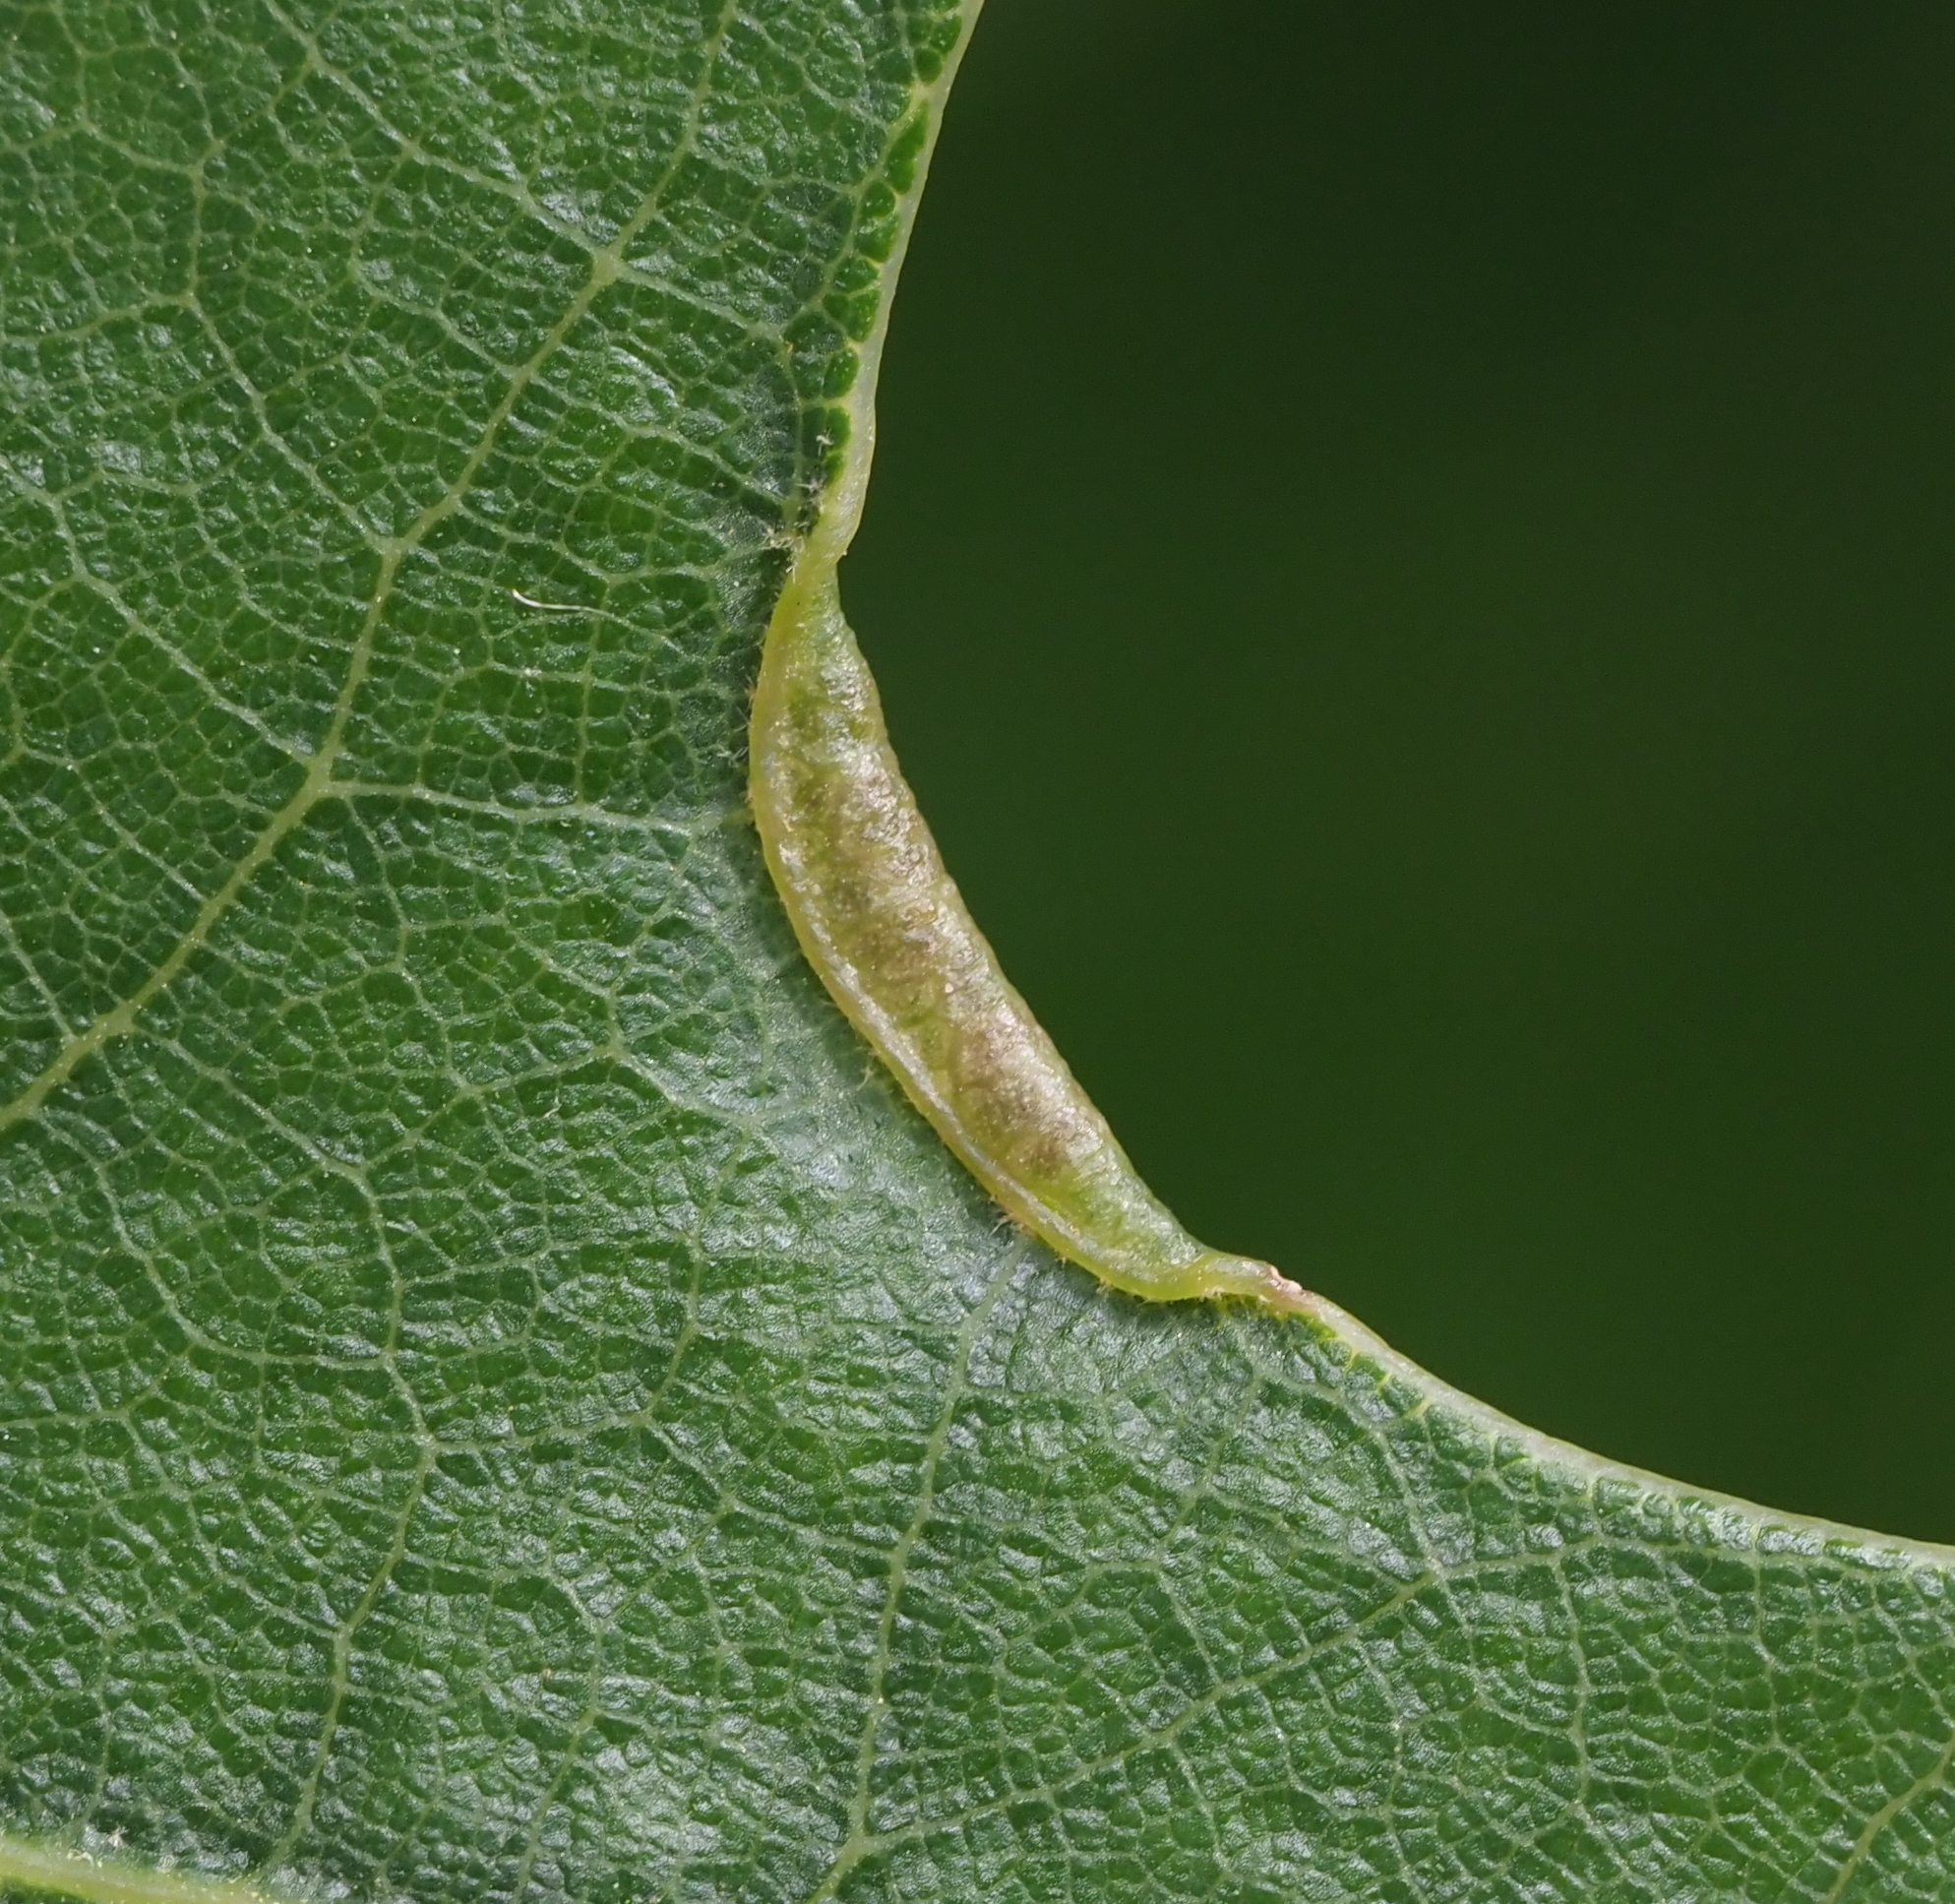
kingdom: Animalia
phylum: Arthropoda
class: Insecta
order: Diptera
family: Cecidomyiidae
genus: Macrodiplosis
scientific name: Macrodiplosis erubescens
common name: Marginal leaf fold gall midge
